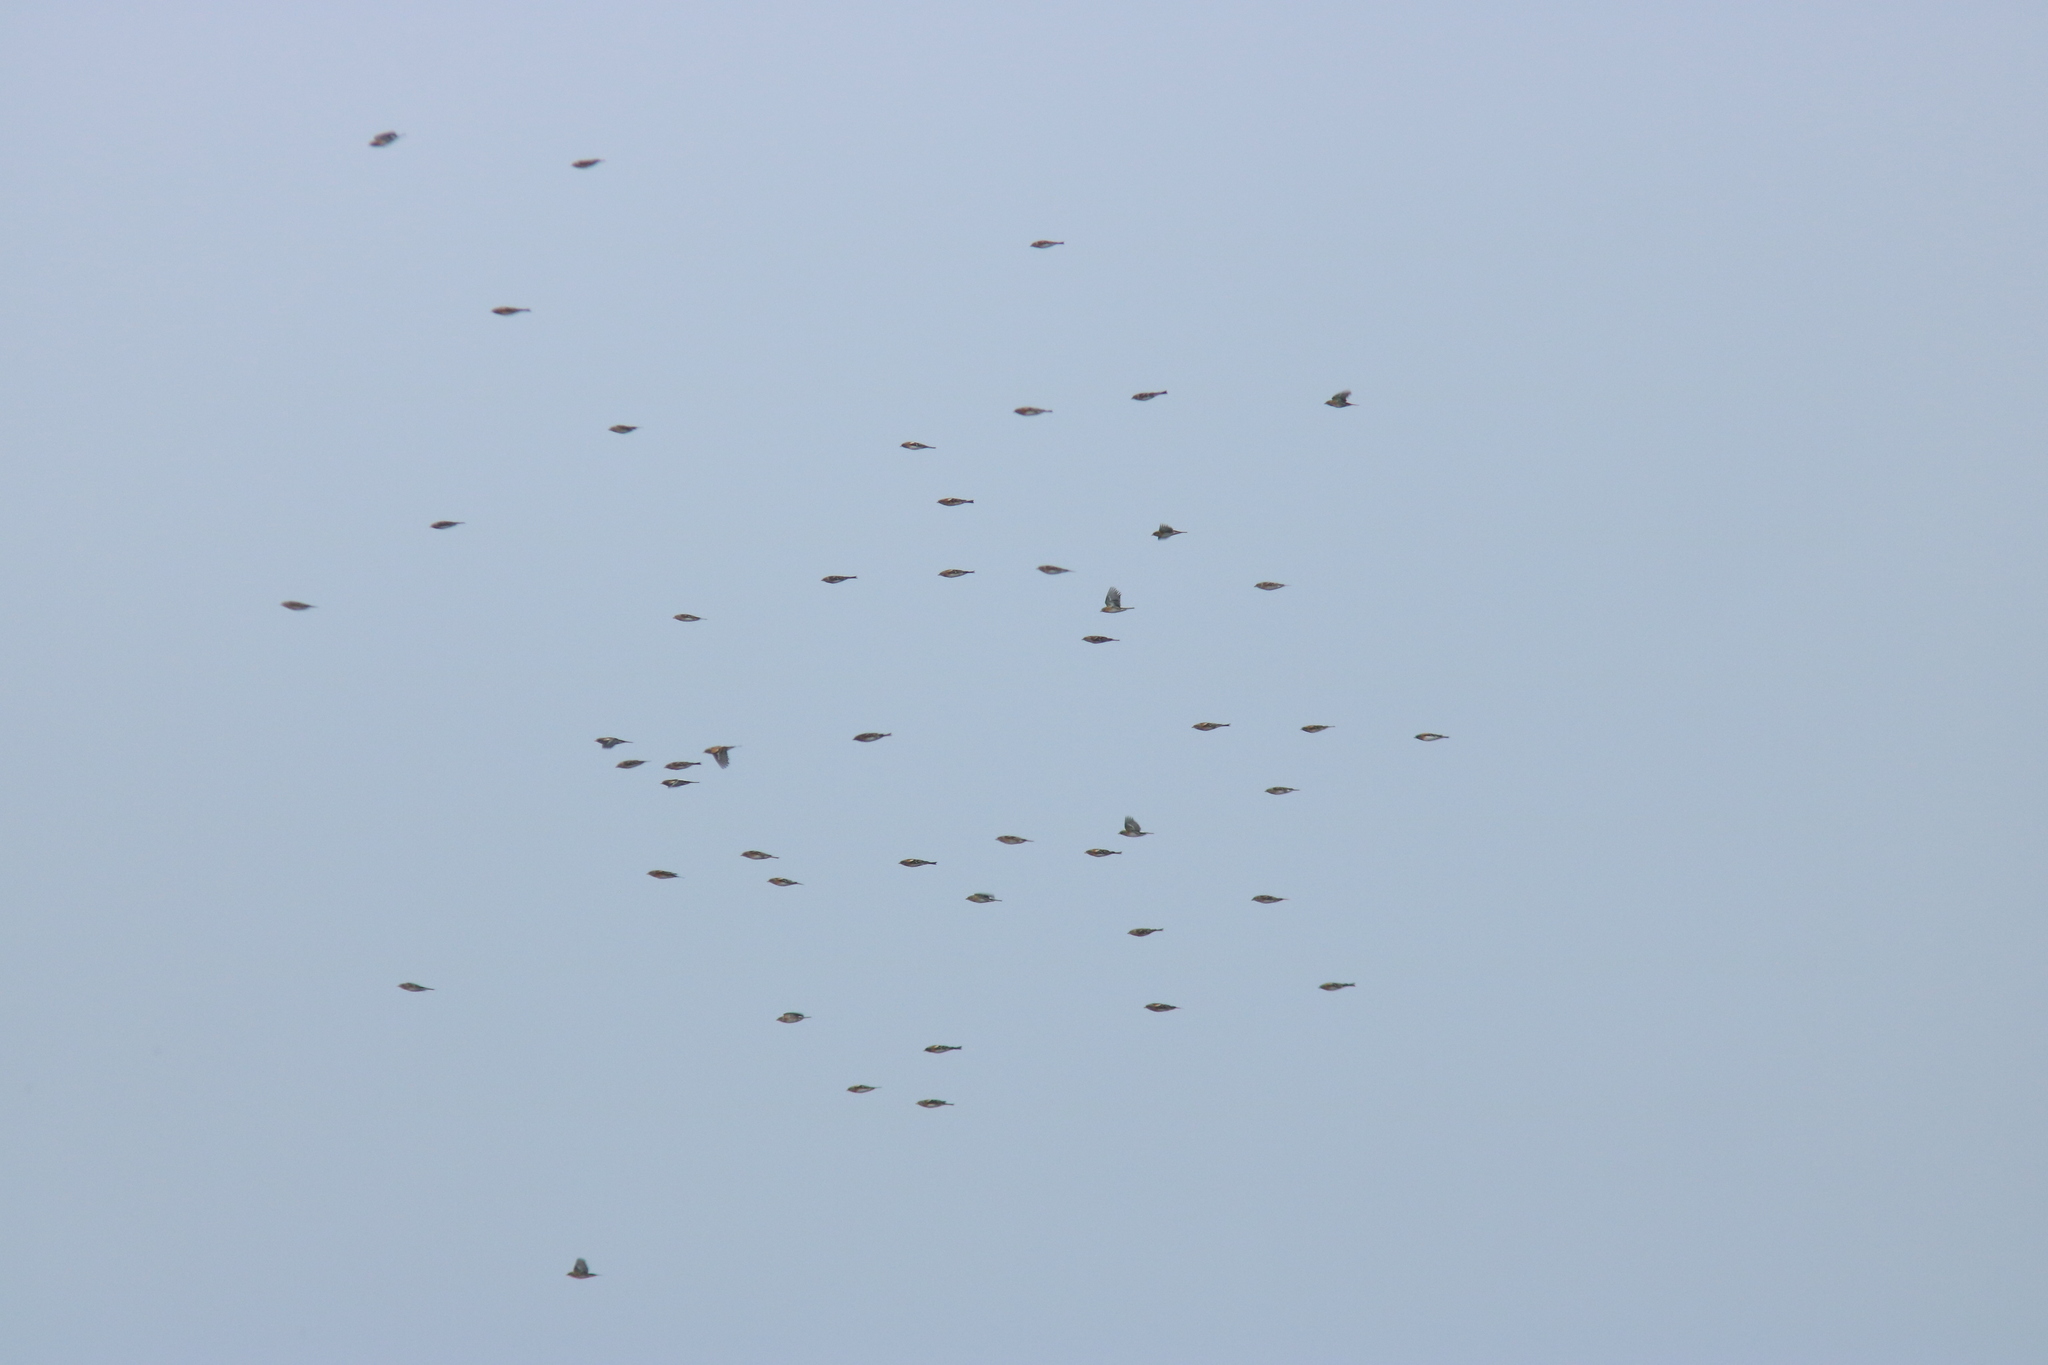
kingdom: Animalia
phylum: Chordata
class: Aves
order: Passeriformes
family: Fringillidae
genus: Fringilla
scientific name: Fringilla montifringilla
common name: Brambling
